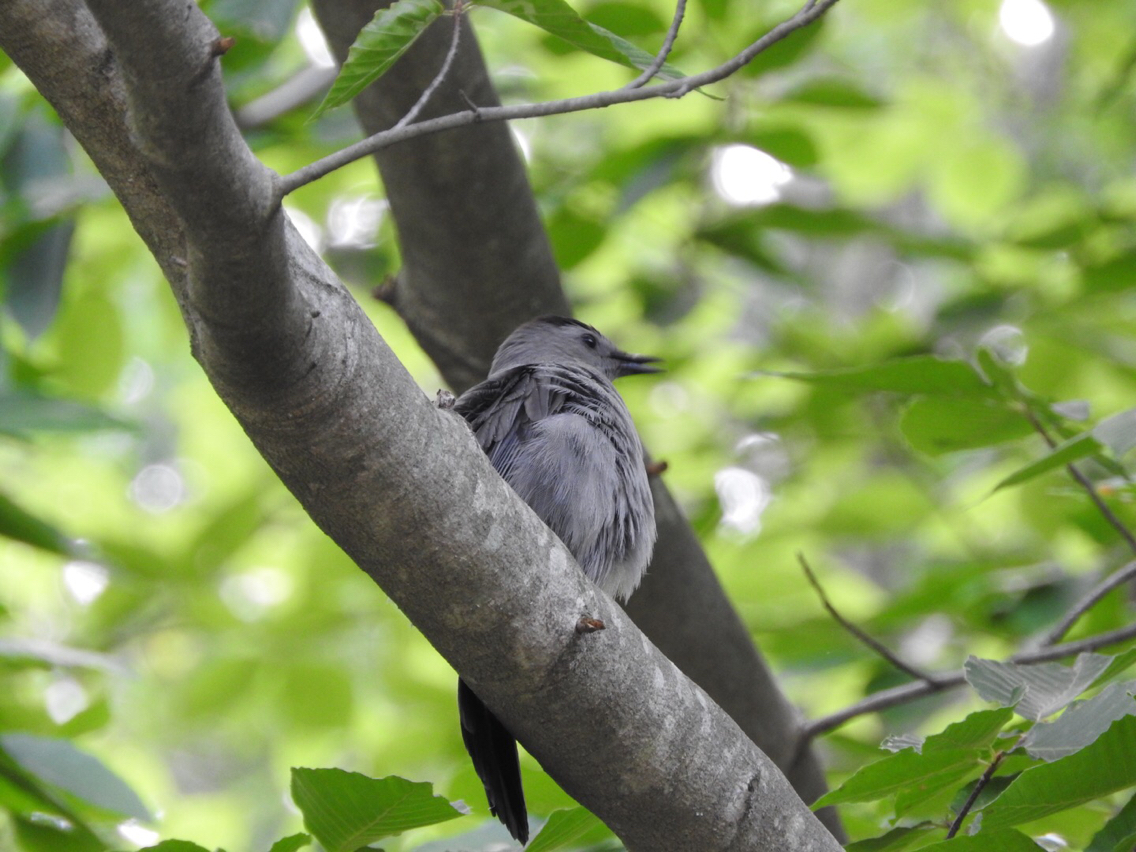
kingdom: Animalia
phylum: Chordata
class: Aves
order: Passeriformes
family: Mimidae
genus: Dumetella
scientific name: Dumetella carolinensis
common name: Gray catbird
